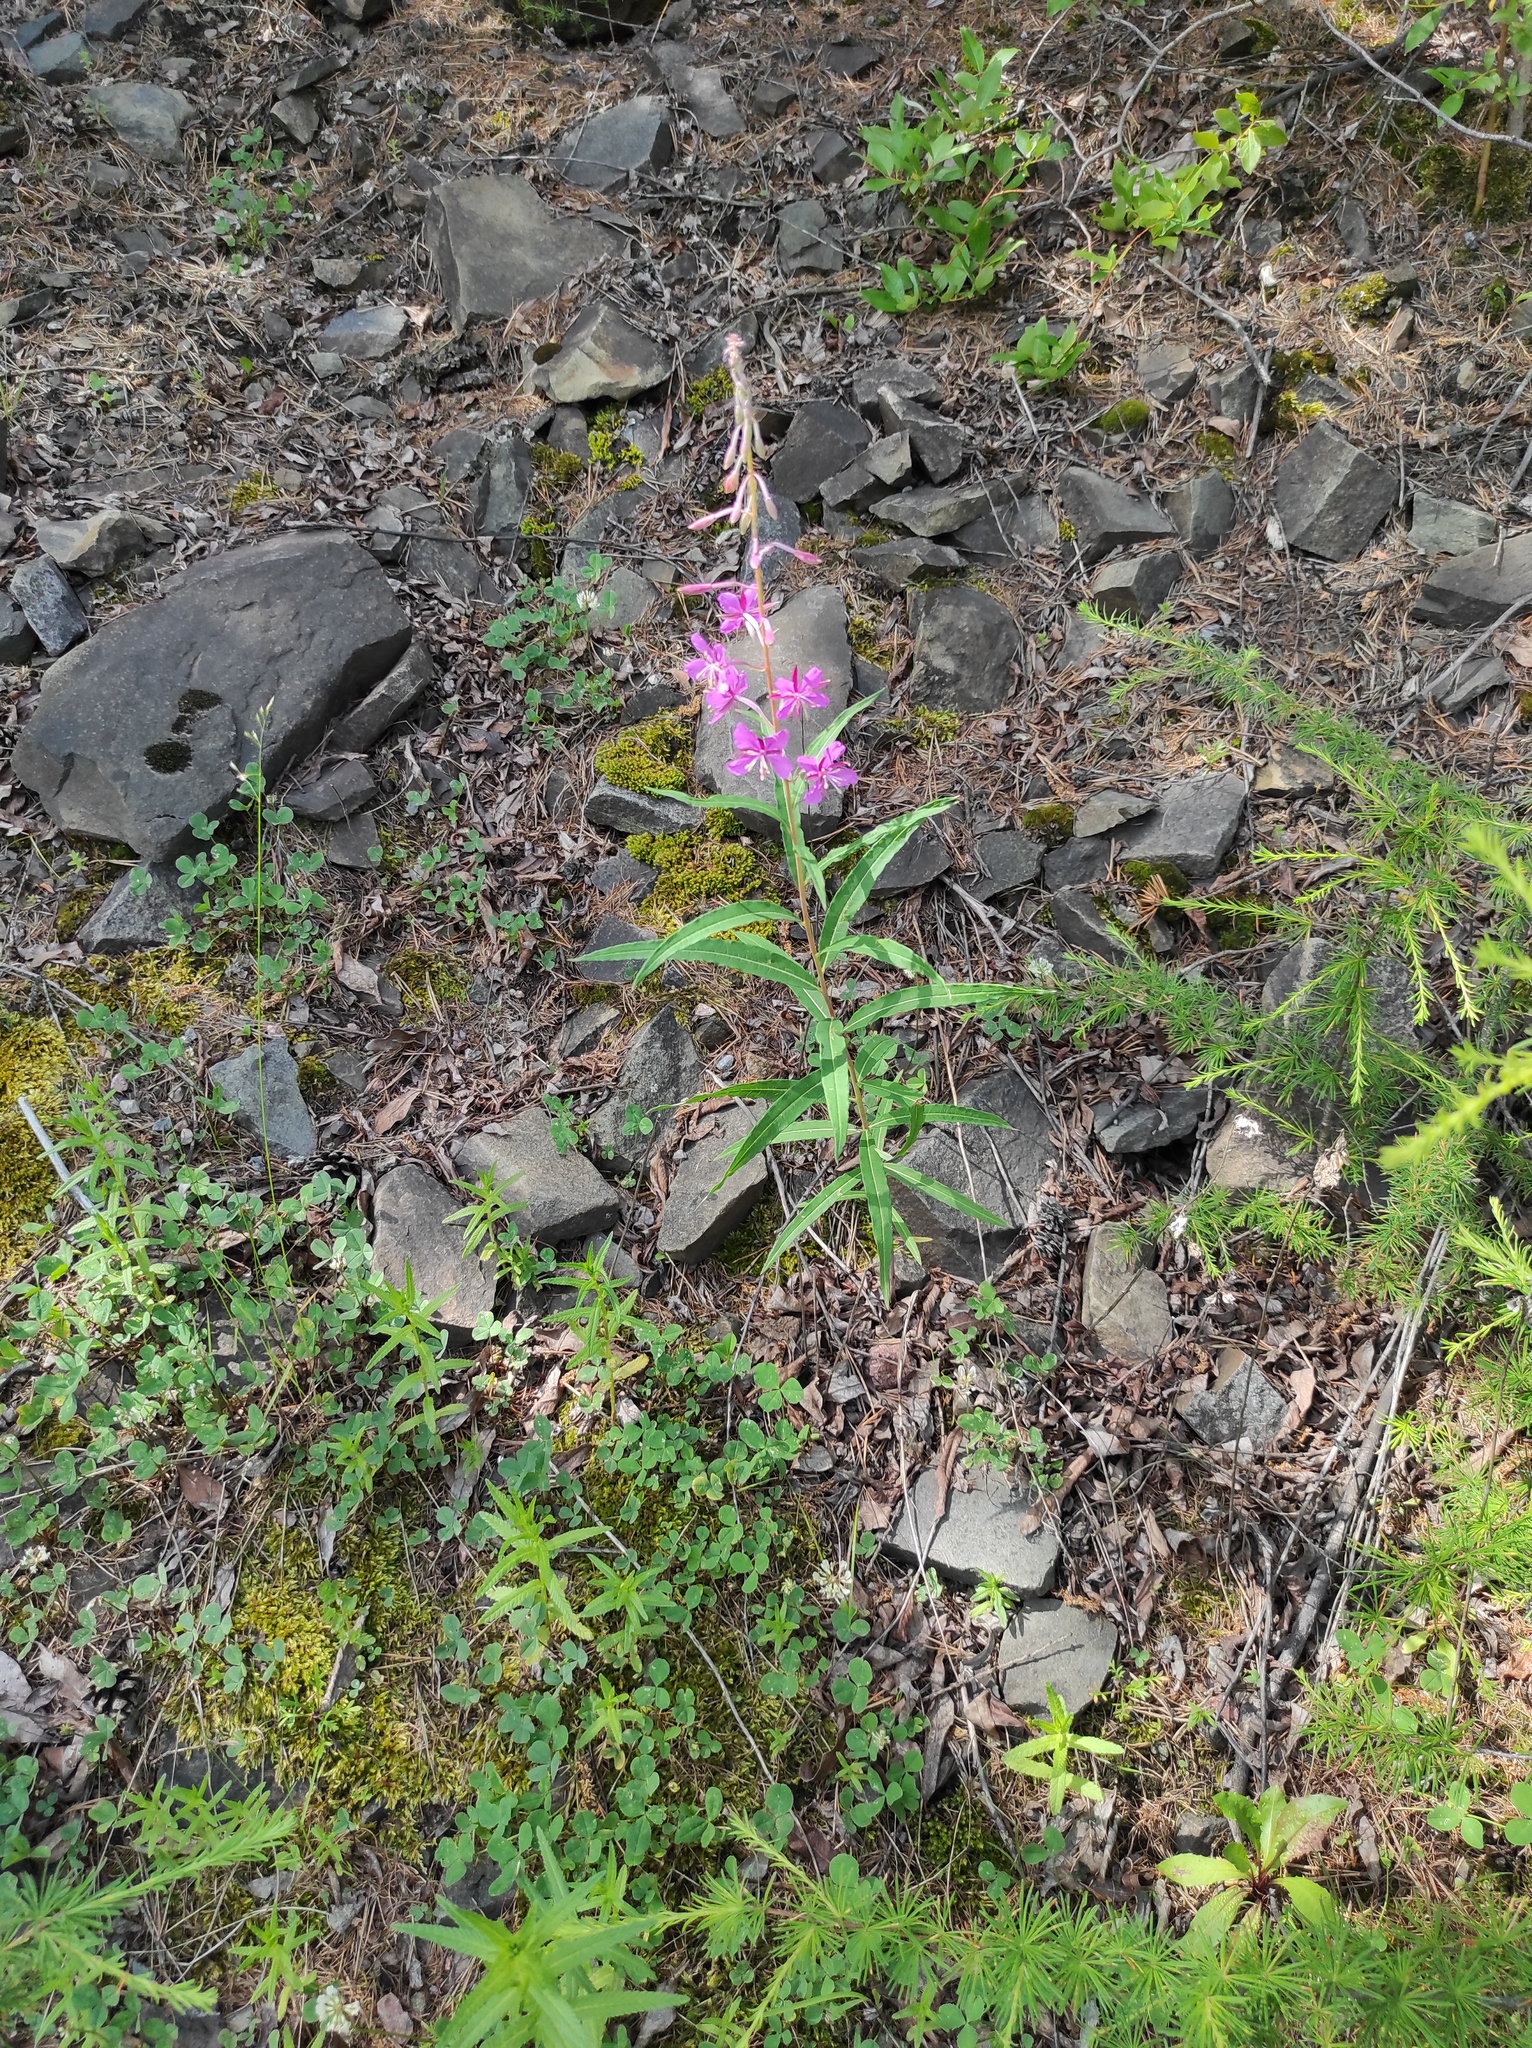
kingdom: Plantae
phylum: Tracheophyta
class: Magnoliopsida
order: Myrtales
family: Onagraceae
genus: Chamaenerion
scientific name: Chamaenerion angustifolium
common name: Fireweed
